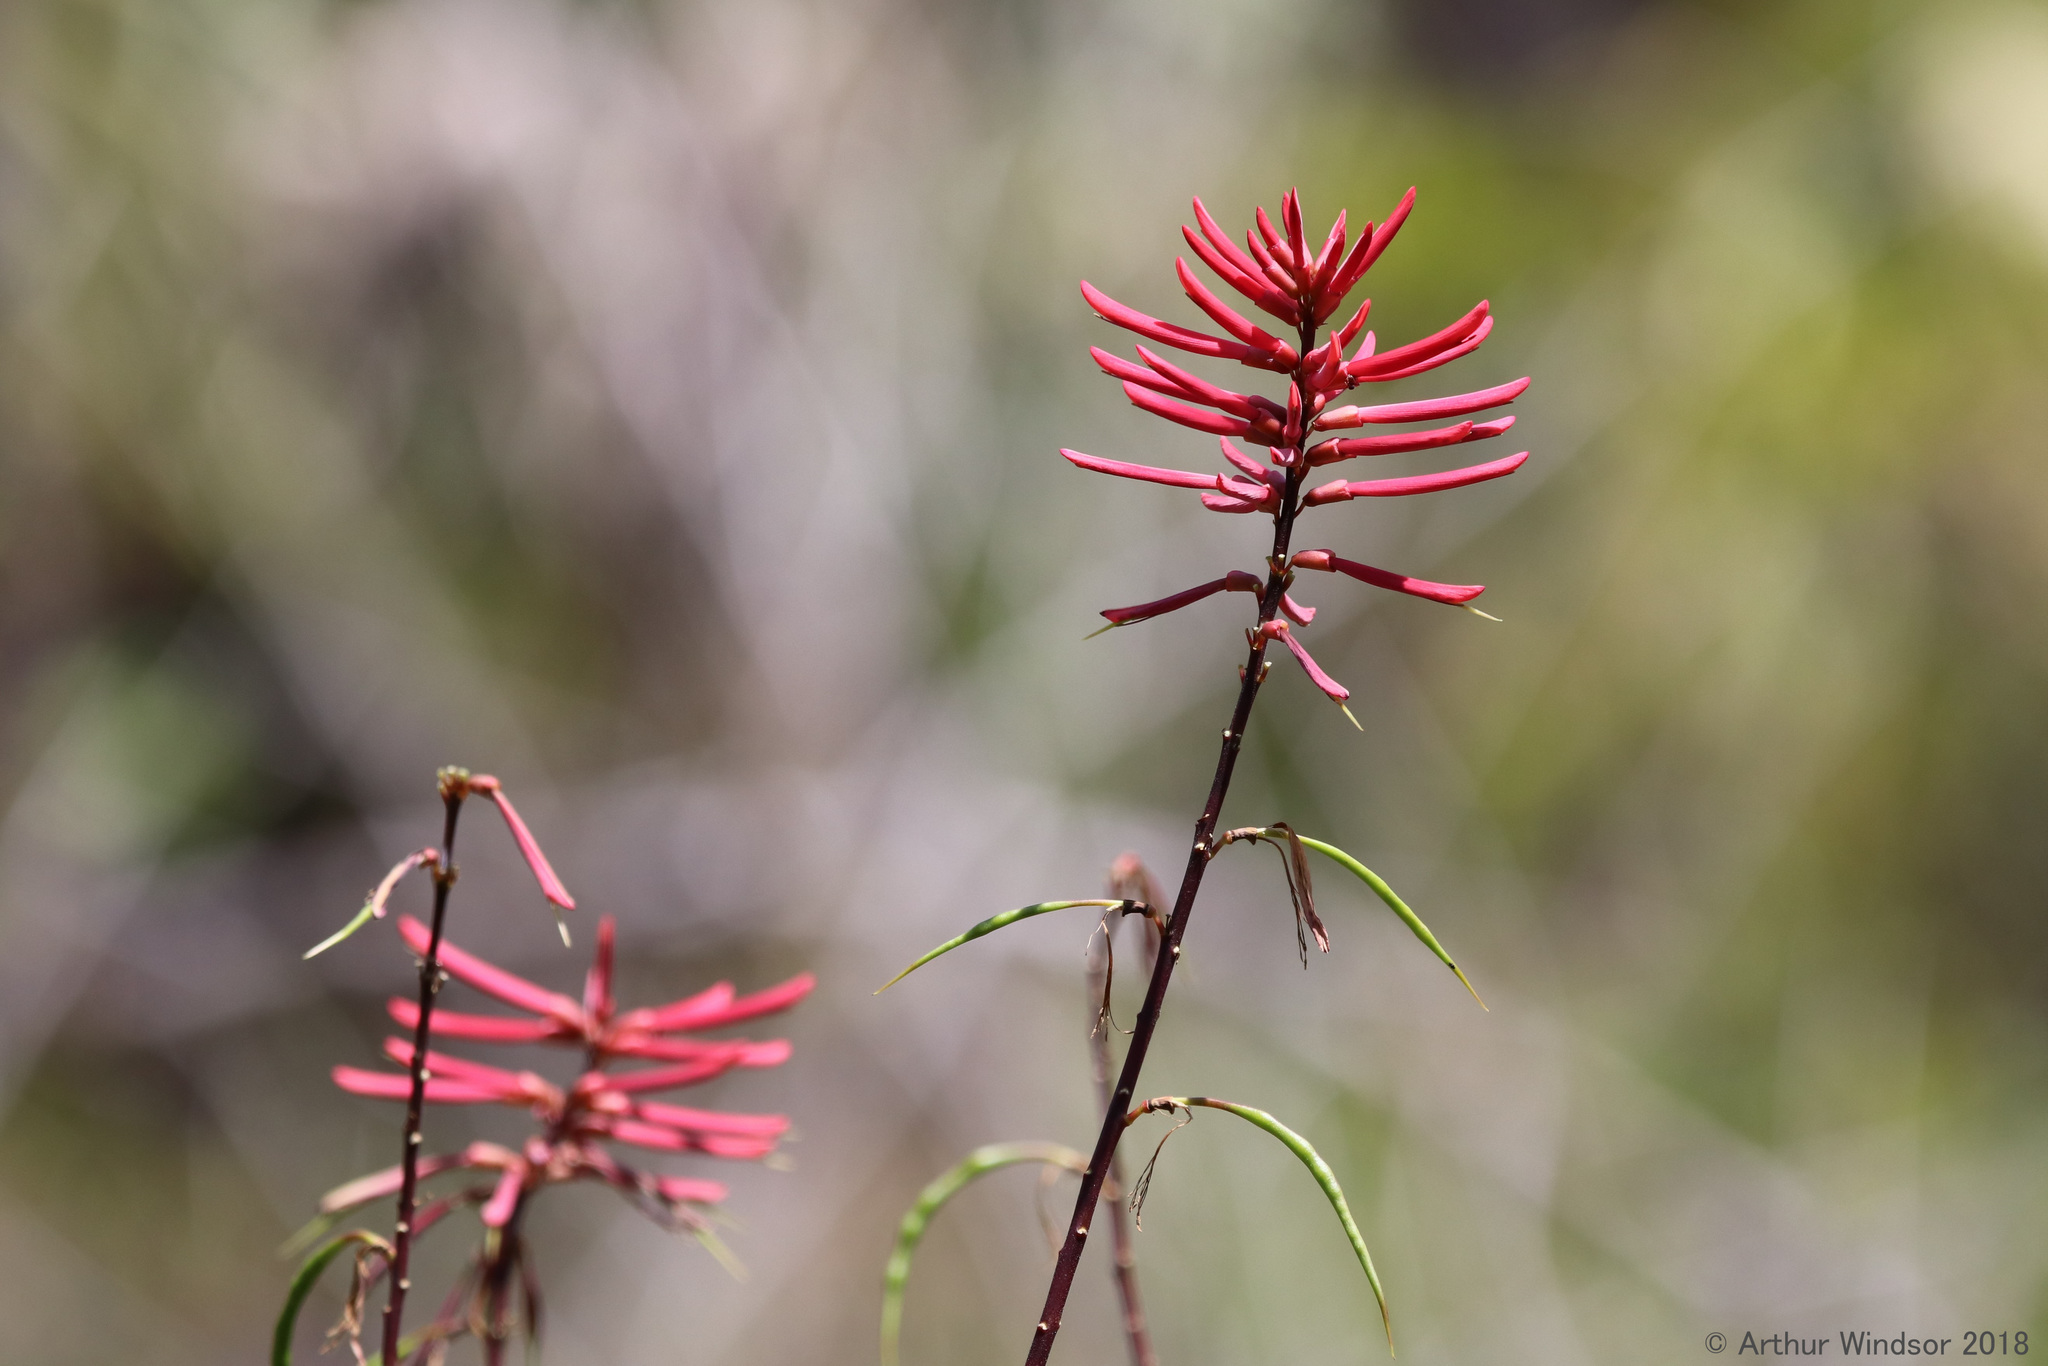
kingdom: Plantae
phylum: Tracheophyta
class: Magnoliopsida
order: Fabales
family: Fabaceae
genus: Erythrina
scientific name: Erythrina herbacea
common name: Coral-bean
